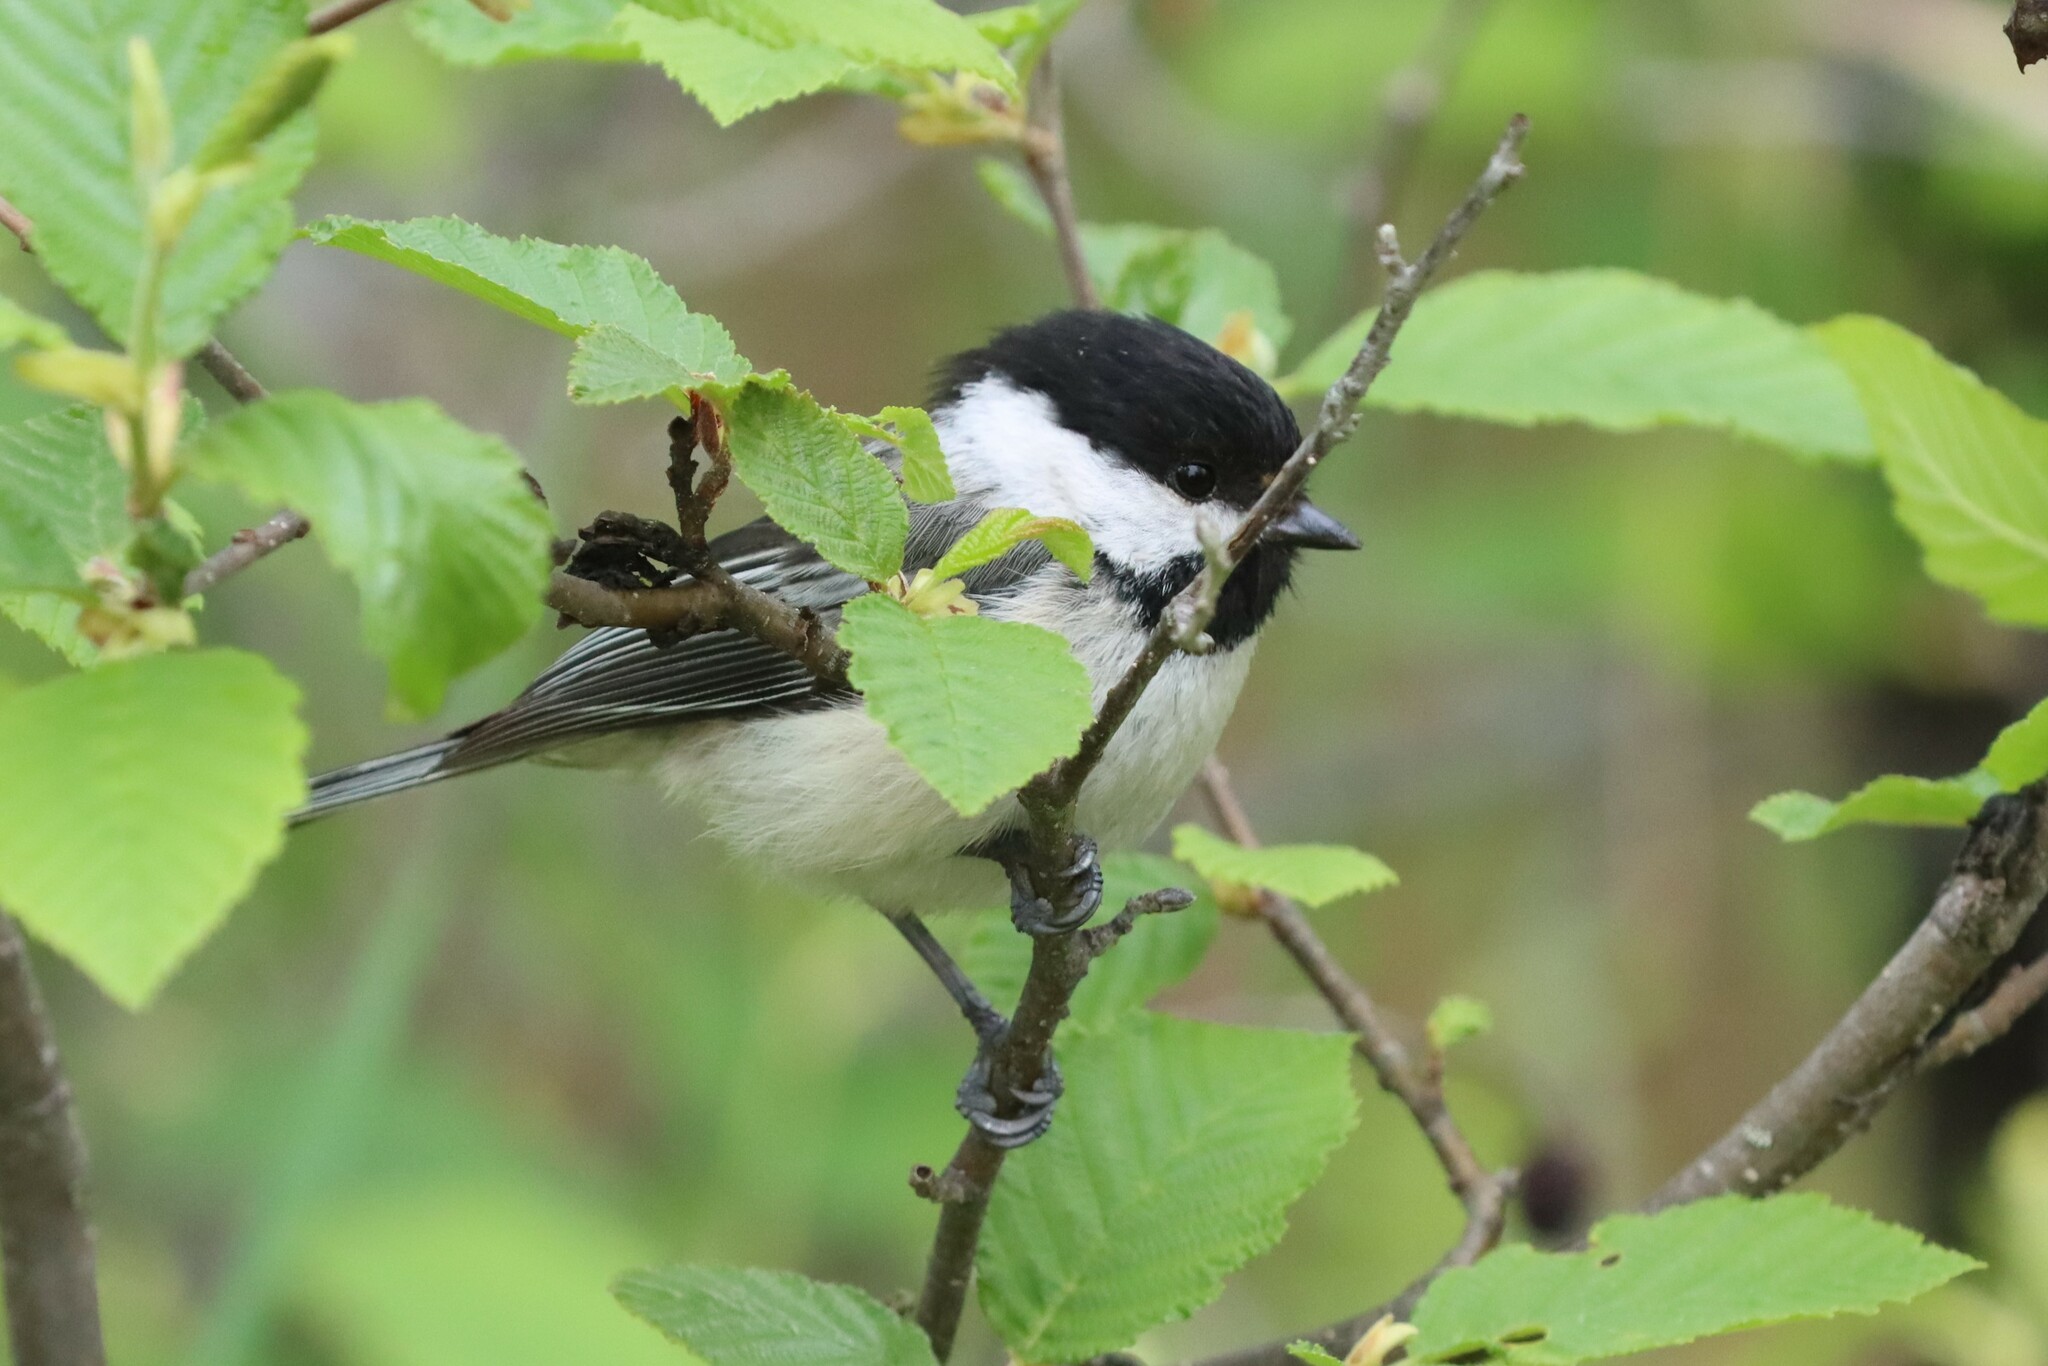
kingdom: Animalia
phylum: Chordata
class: Aves
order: Passeriformes
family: Paridae
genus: Poecile
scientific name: Poecile atricapillus
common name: Black-capped chickadee
